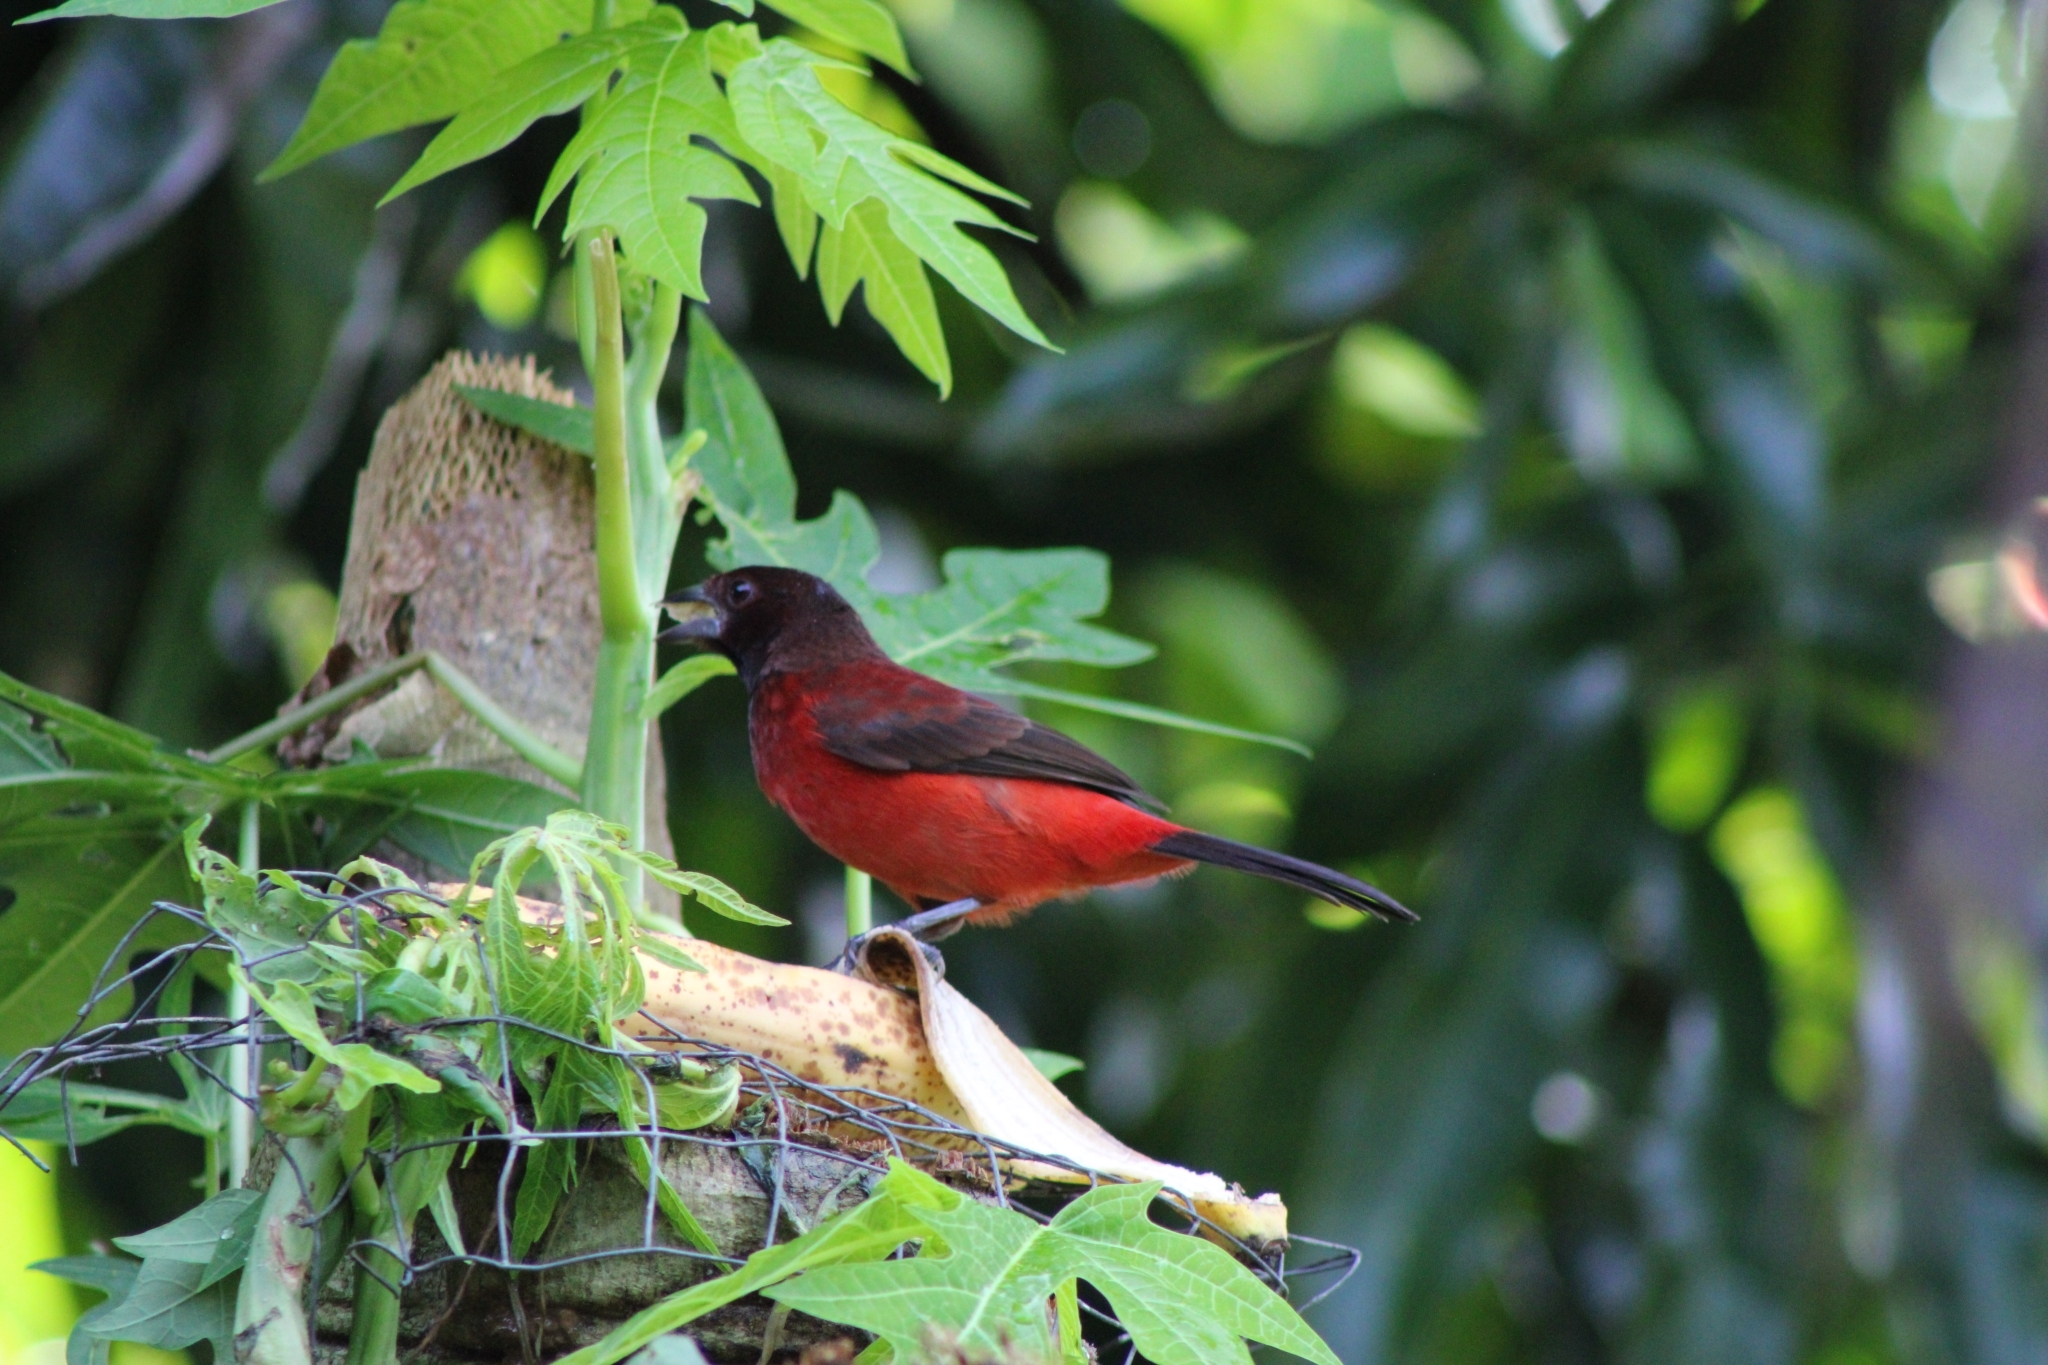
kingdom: Animalia
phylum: Chordata
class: Aves
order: Passeriformes
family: Thraupidae
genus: Ramphocelus
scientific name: Ramphocelus dimidiatus
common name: Crimson-backed tanager
